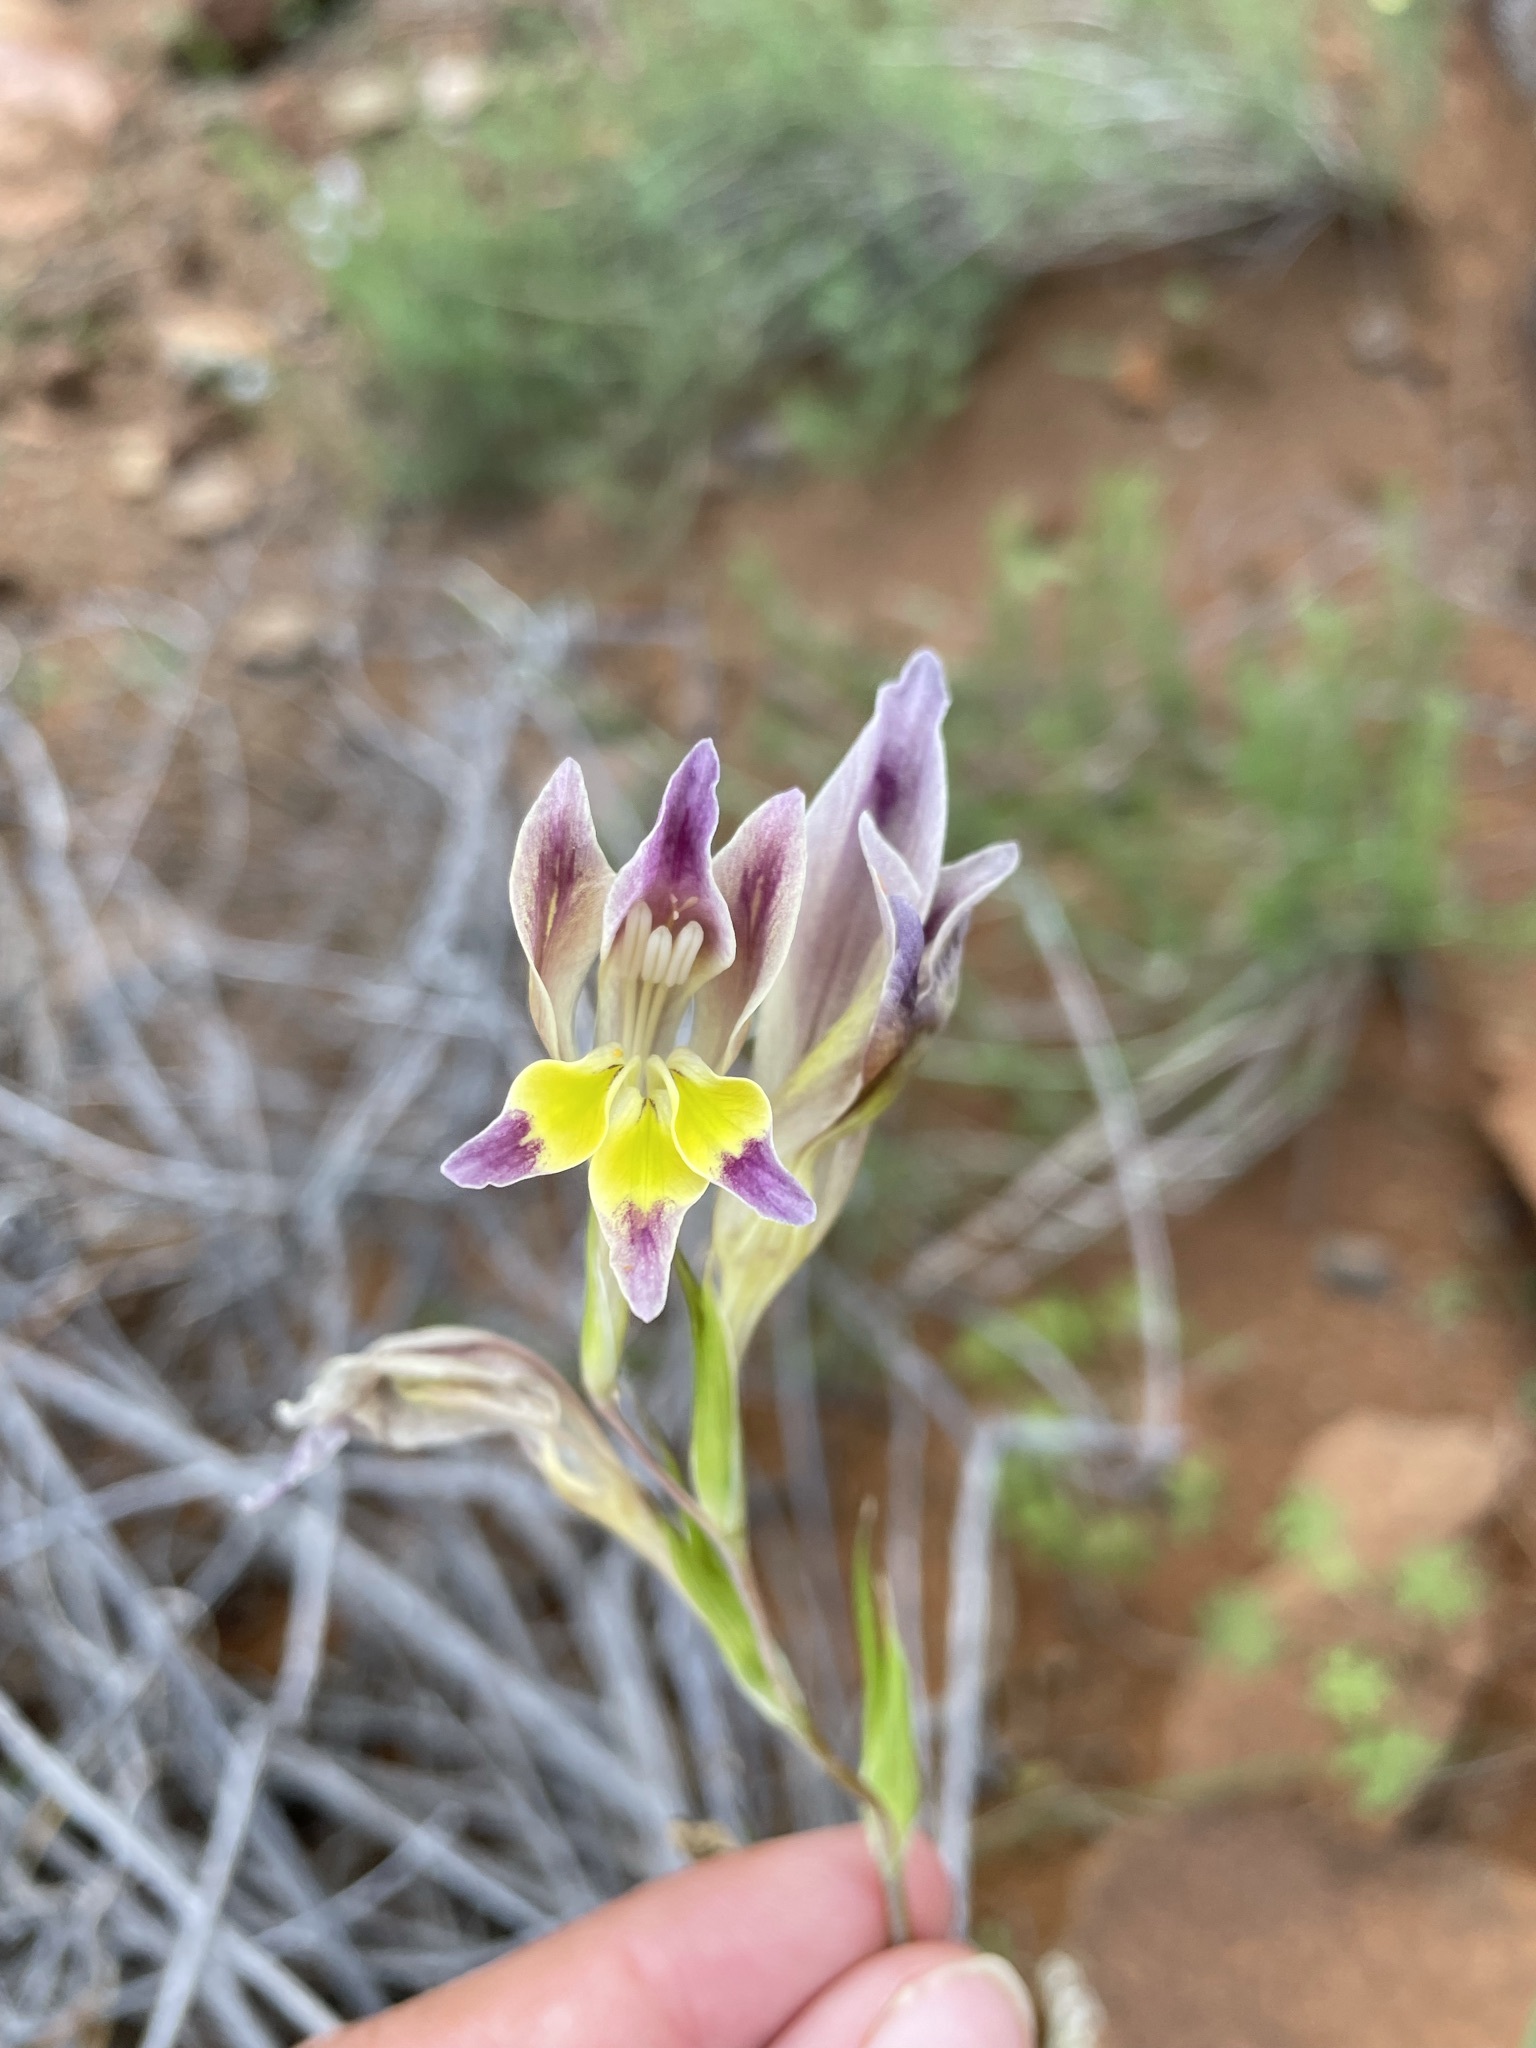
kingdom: Plantae
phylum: Tracheophyta
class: Liliopsida
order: Asparagales
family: Iridaceae
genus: Gladiolus
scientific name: Gladiolus venustus
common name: Purple kalkoentjie
